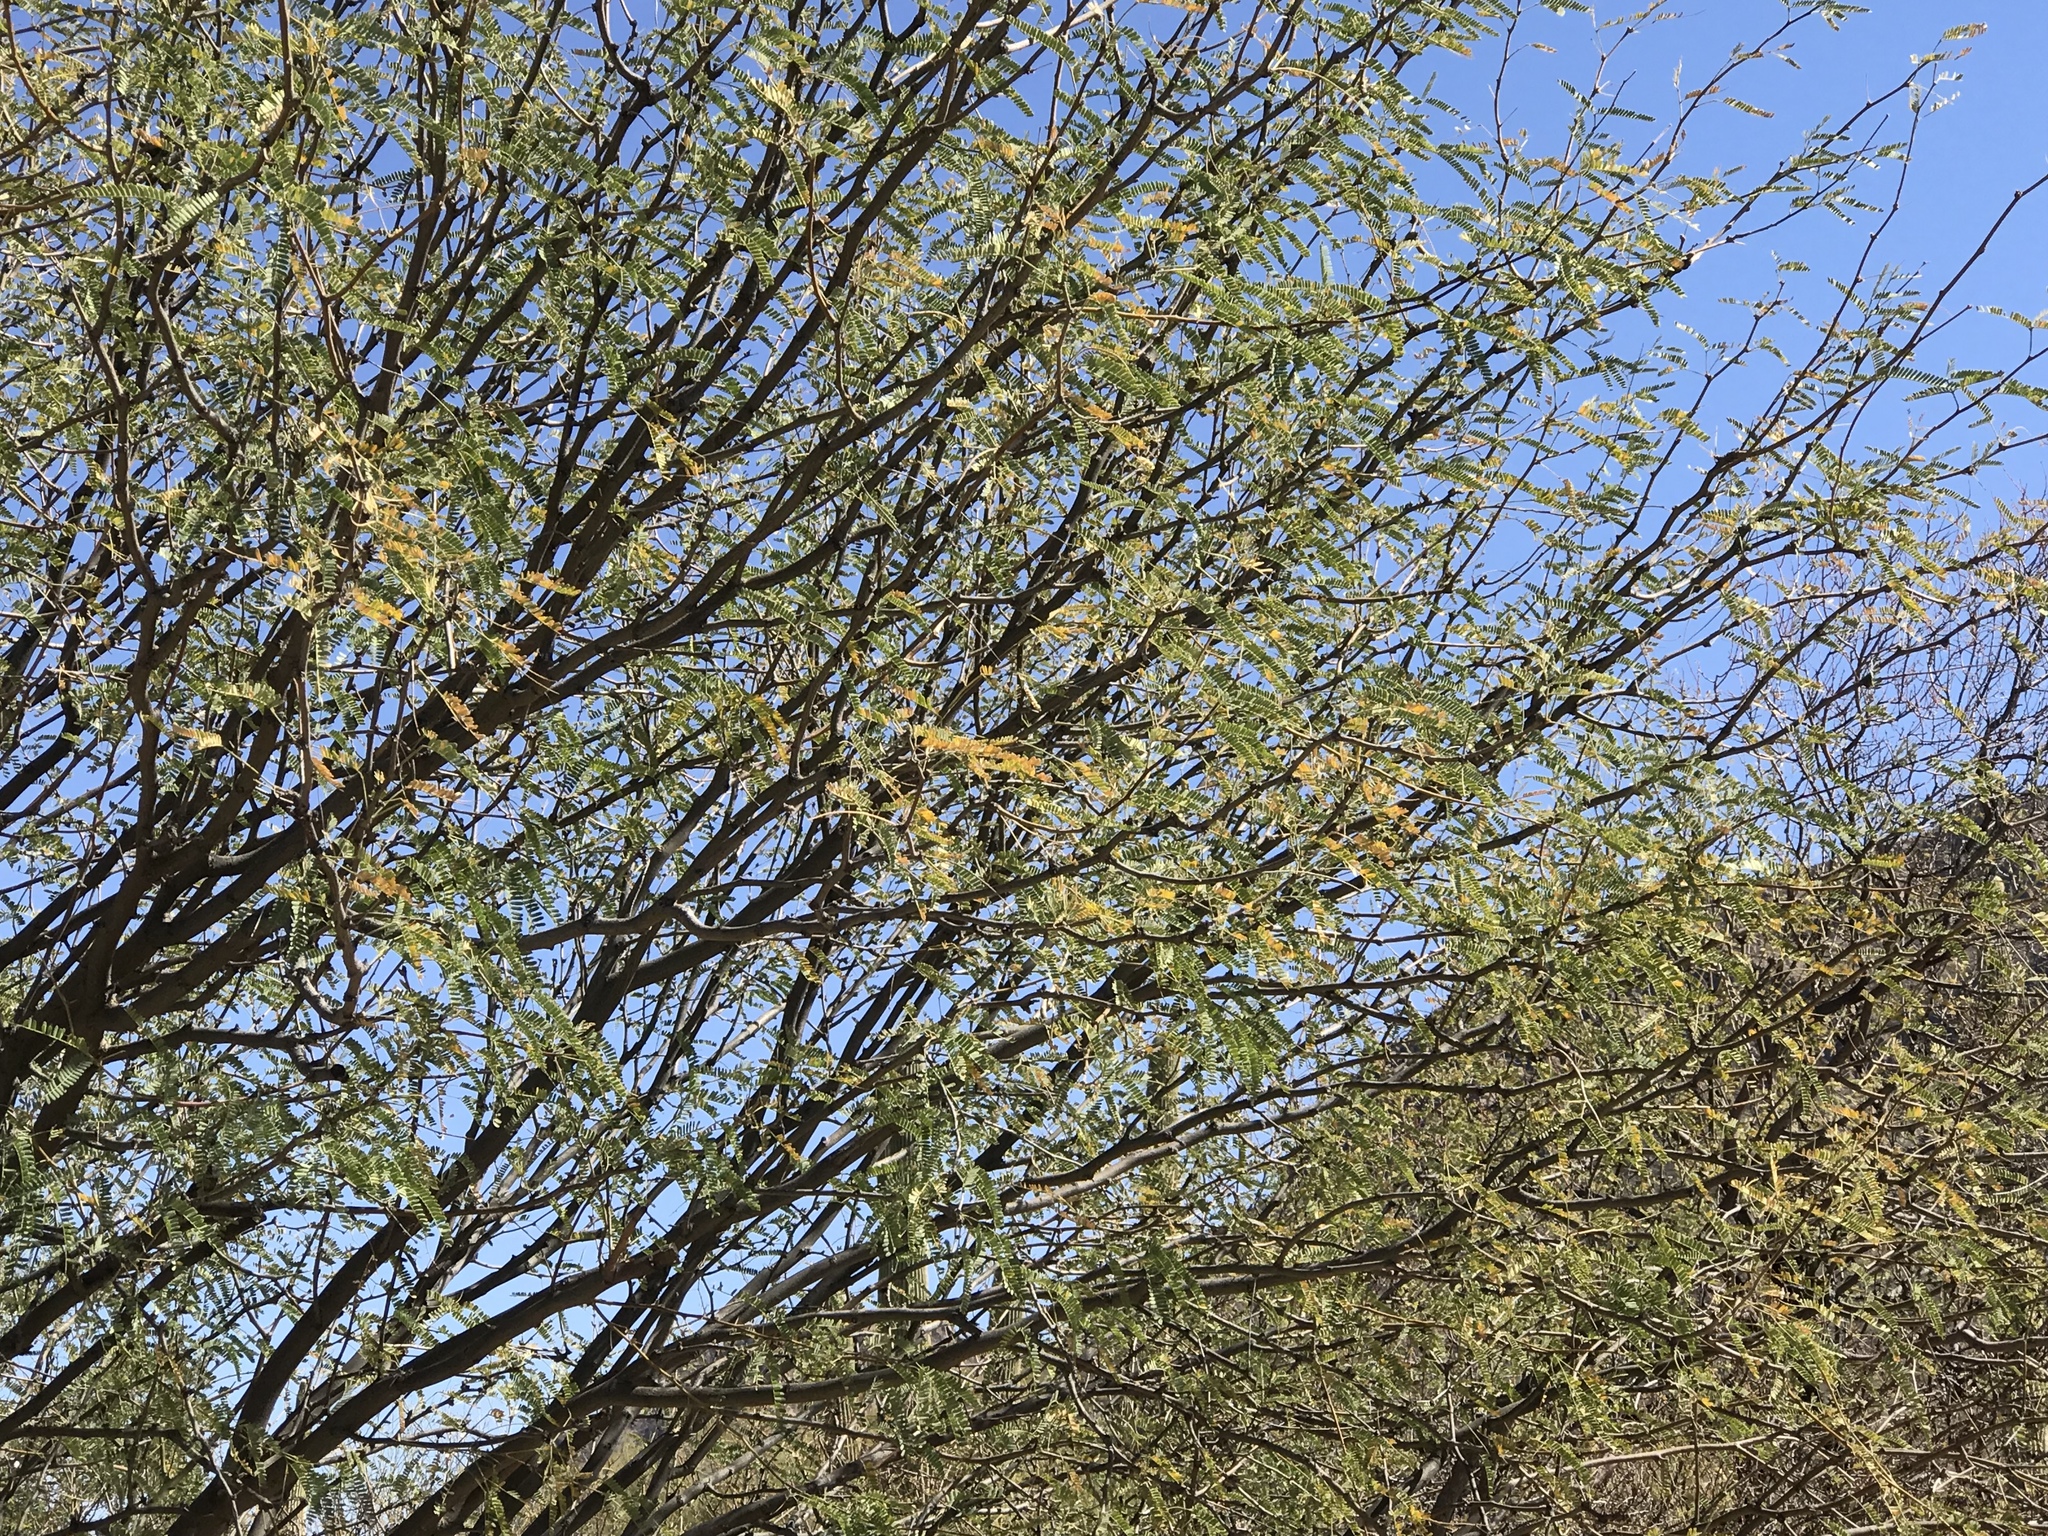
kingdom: Plantae
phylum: Tracheophyta
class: Magnoliopsida
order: Fabales
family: Fabaceae
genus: Prosopis
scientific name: Prosopis velutina
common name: Velvet mesquite
